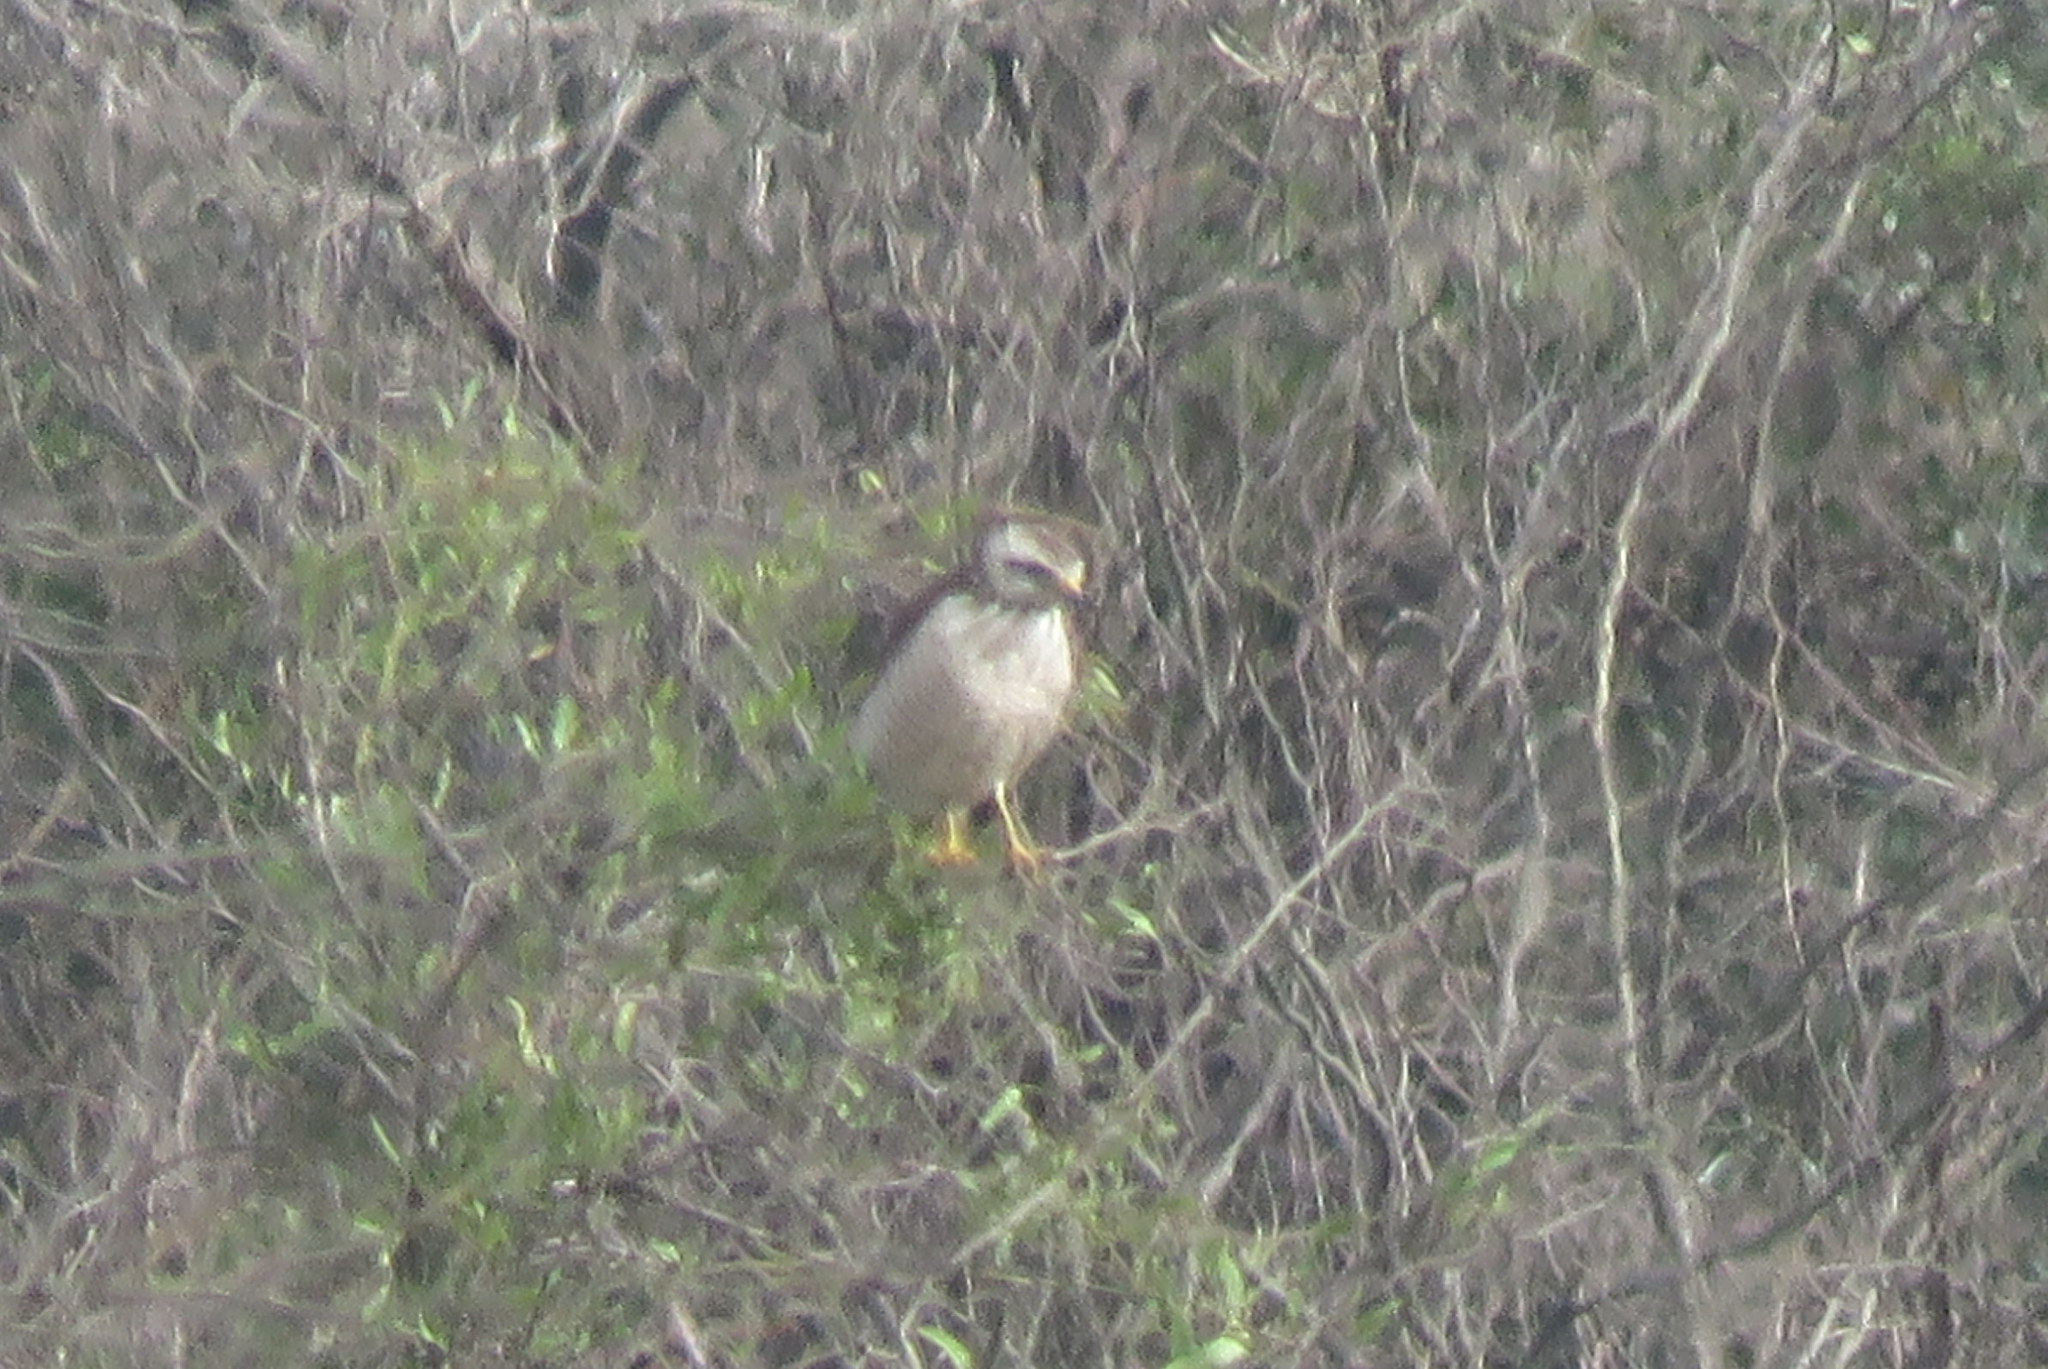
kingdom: Animalia
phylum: Chordata
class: Aves
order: Accipitriformes
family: Accipitridae
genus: Rupornis
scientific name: Rupornis magnirostris
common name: Roadside hawk
